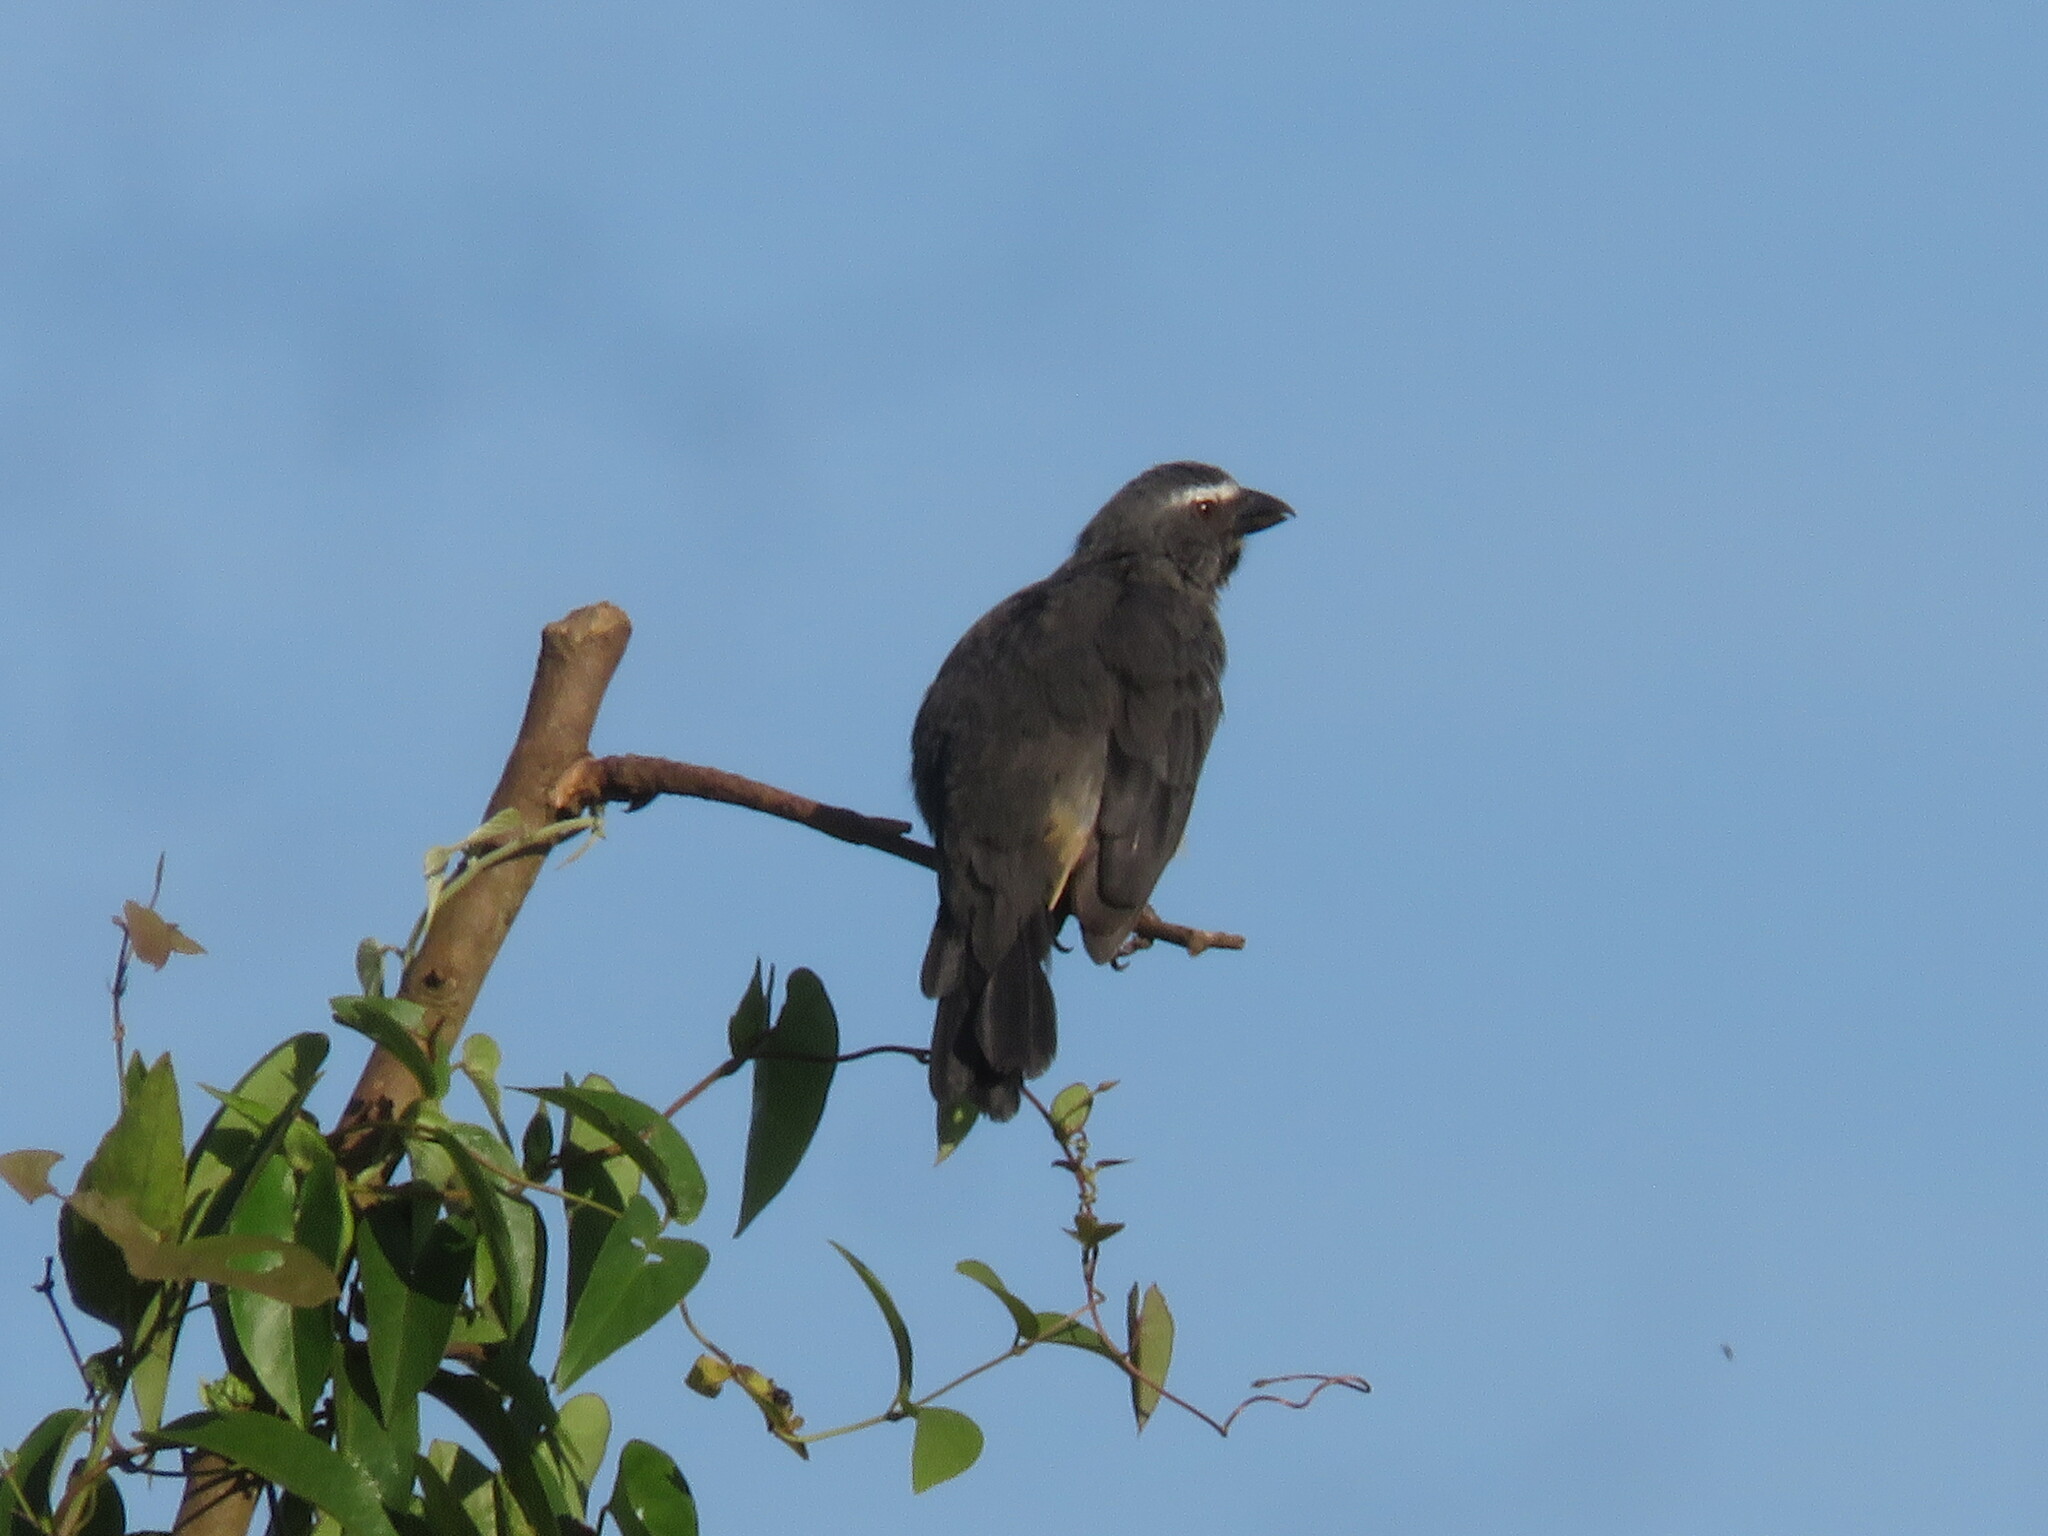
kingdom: Animalia
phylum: Chordata
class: Aves
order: Passeriformes
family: Thraupidae
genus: Saltator
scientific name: Saltator coerulescens
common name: Grayish saltator
